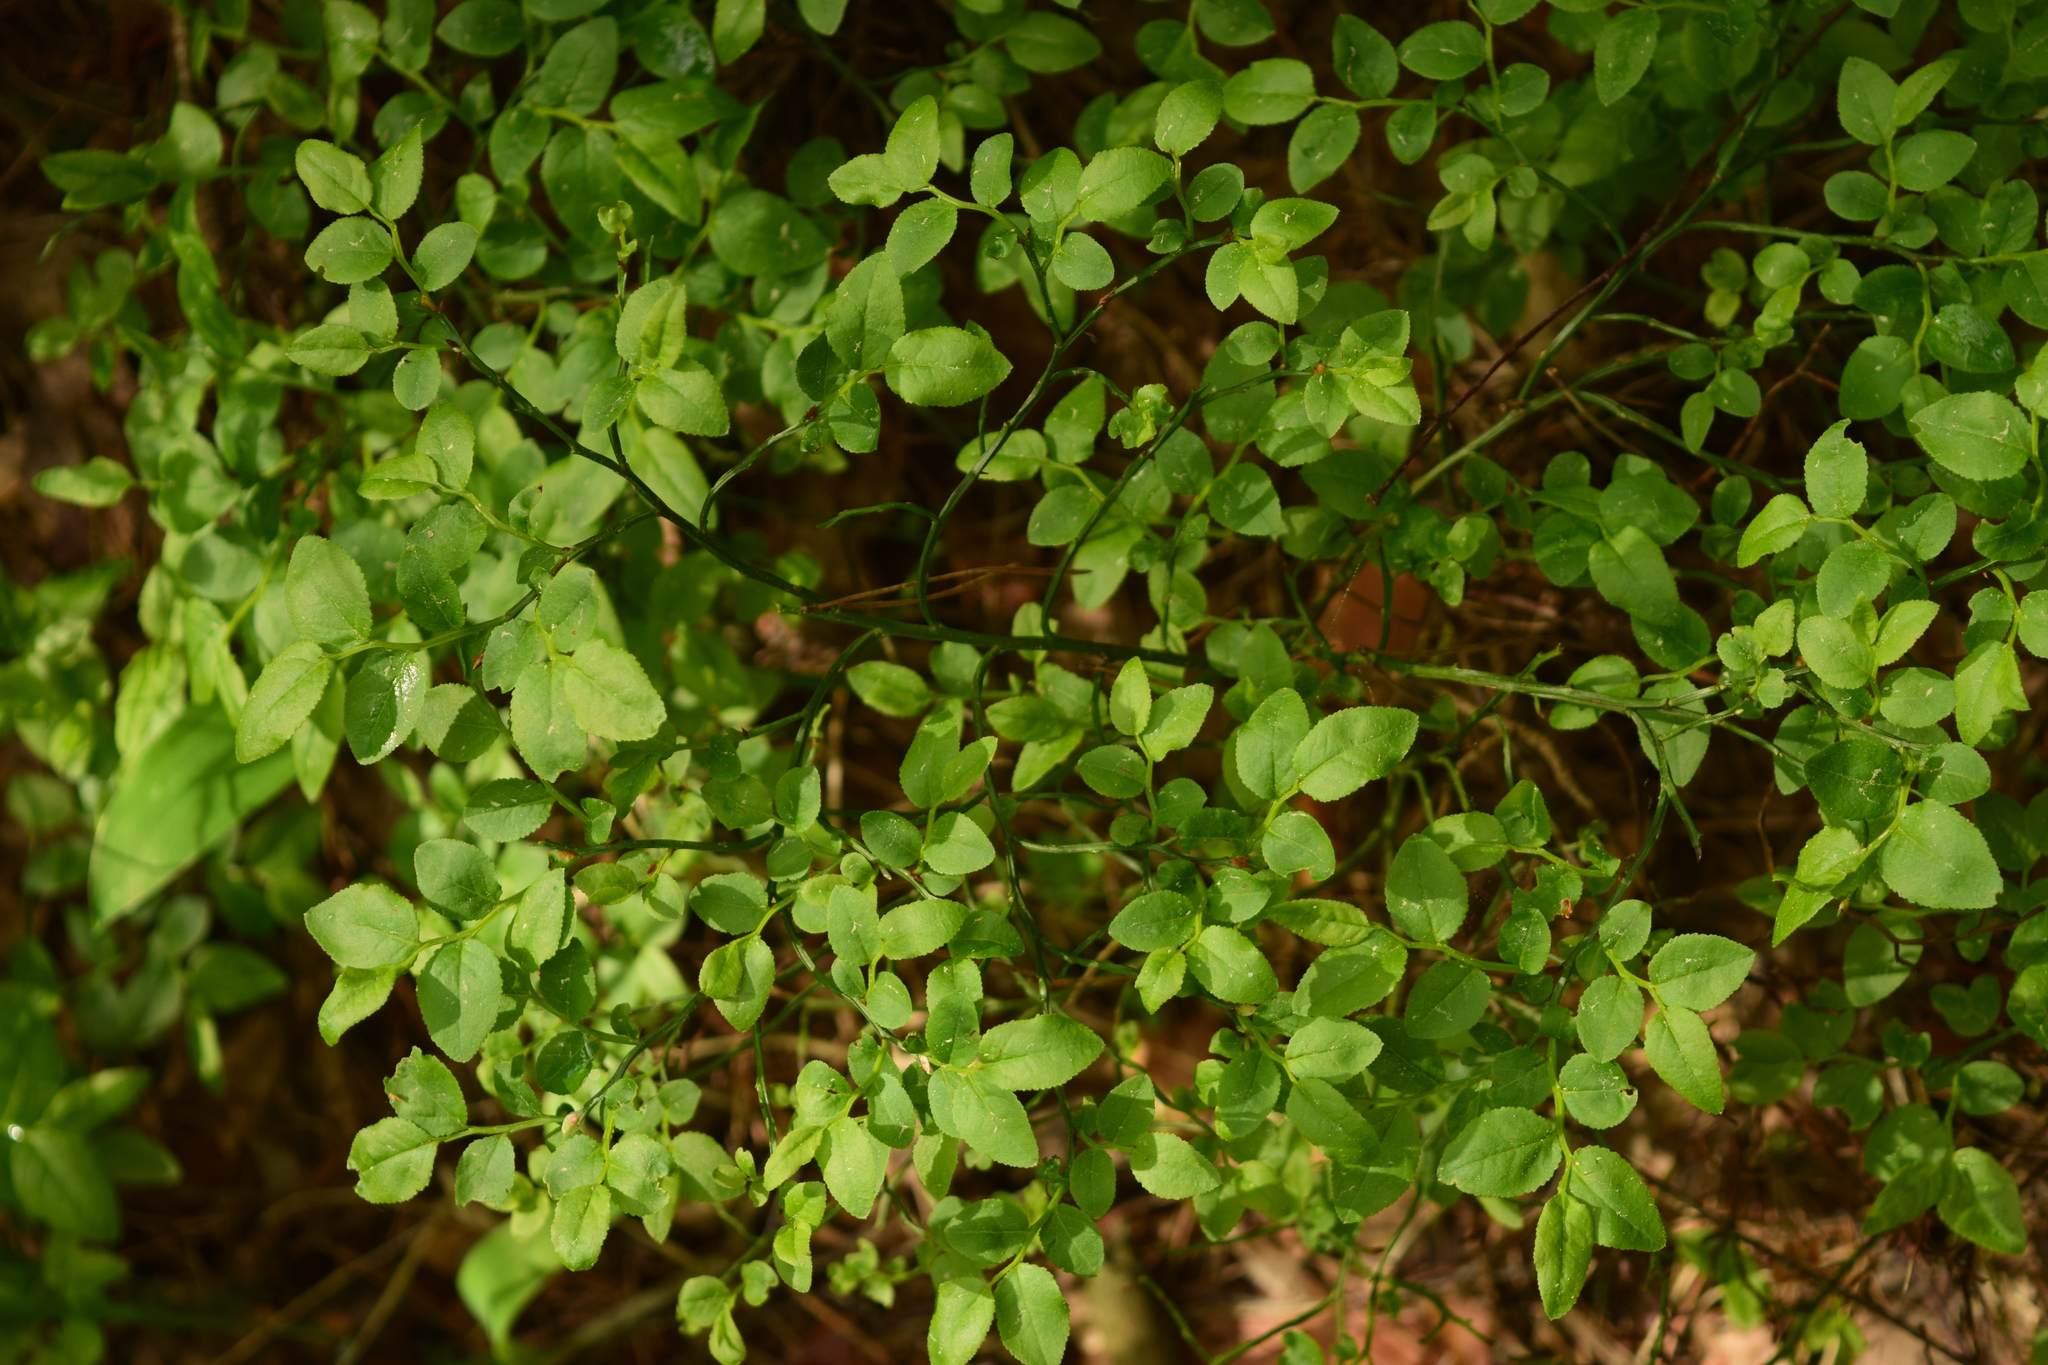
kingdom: Plantae
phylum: Tracheophyta
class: Magnoliopsida
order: Ericales
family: Ericaceae
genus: Vaccinium
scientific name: Vaccinium myrtillus
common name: Bilberry
